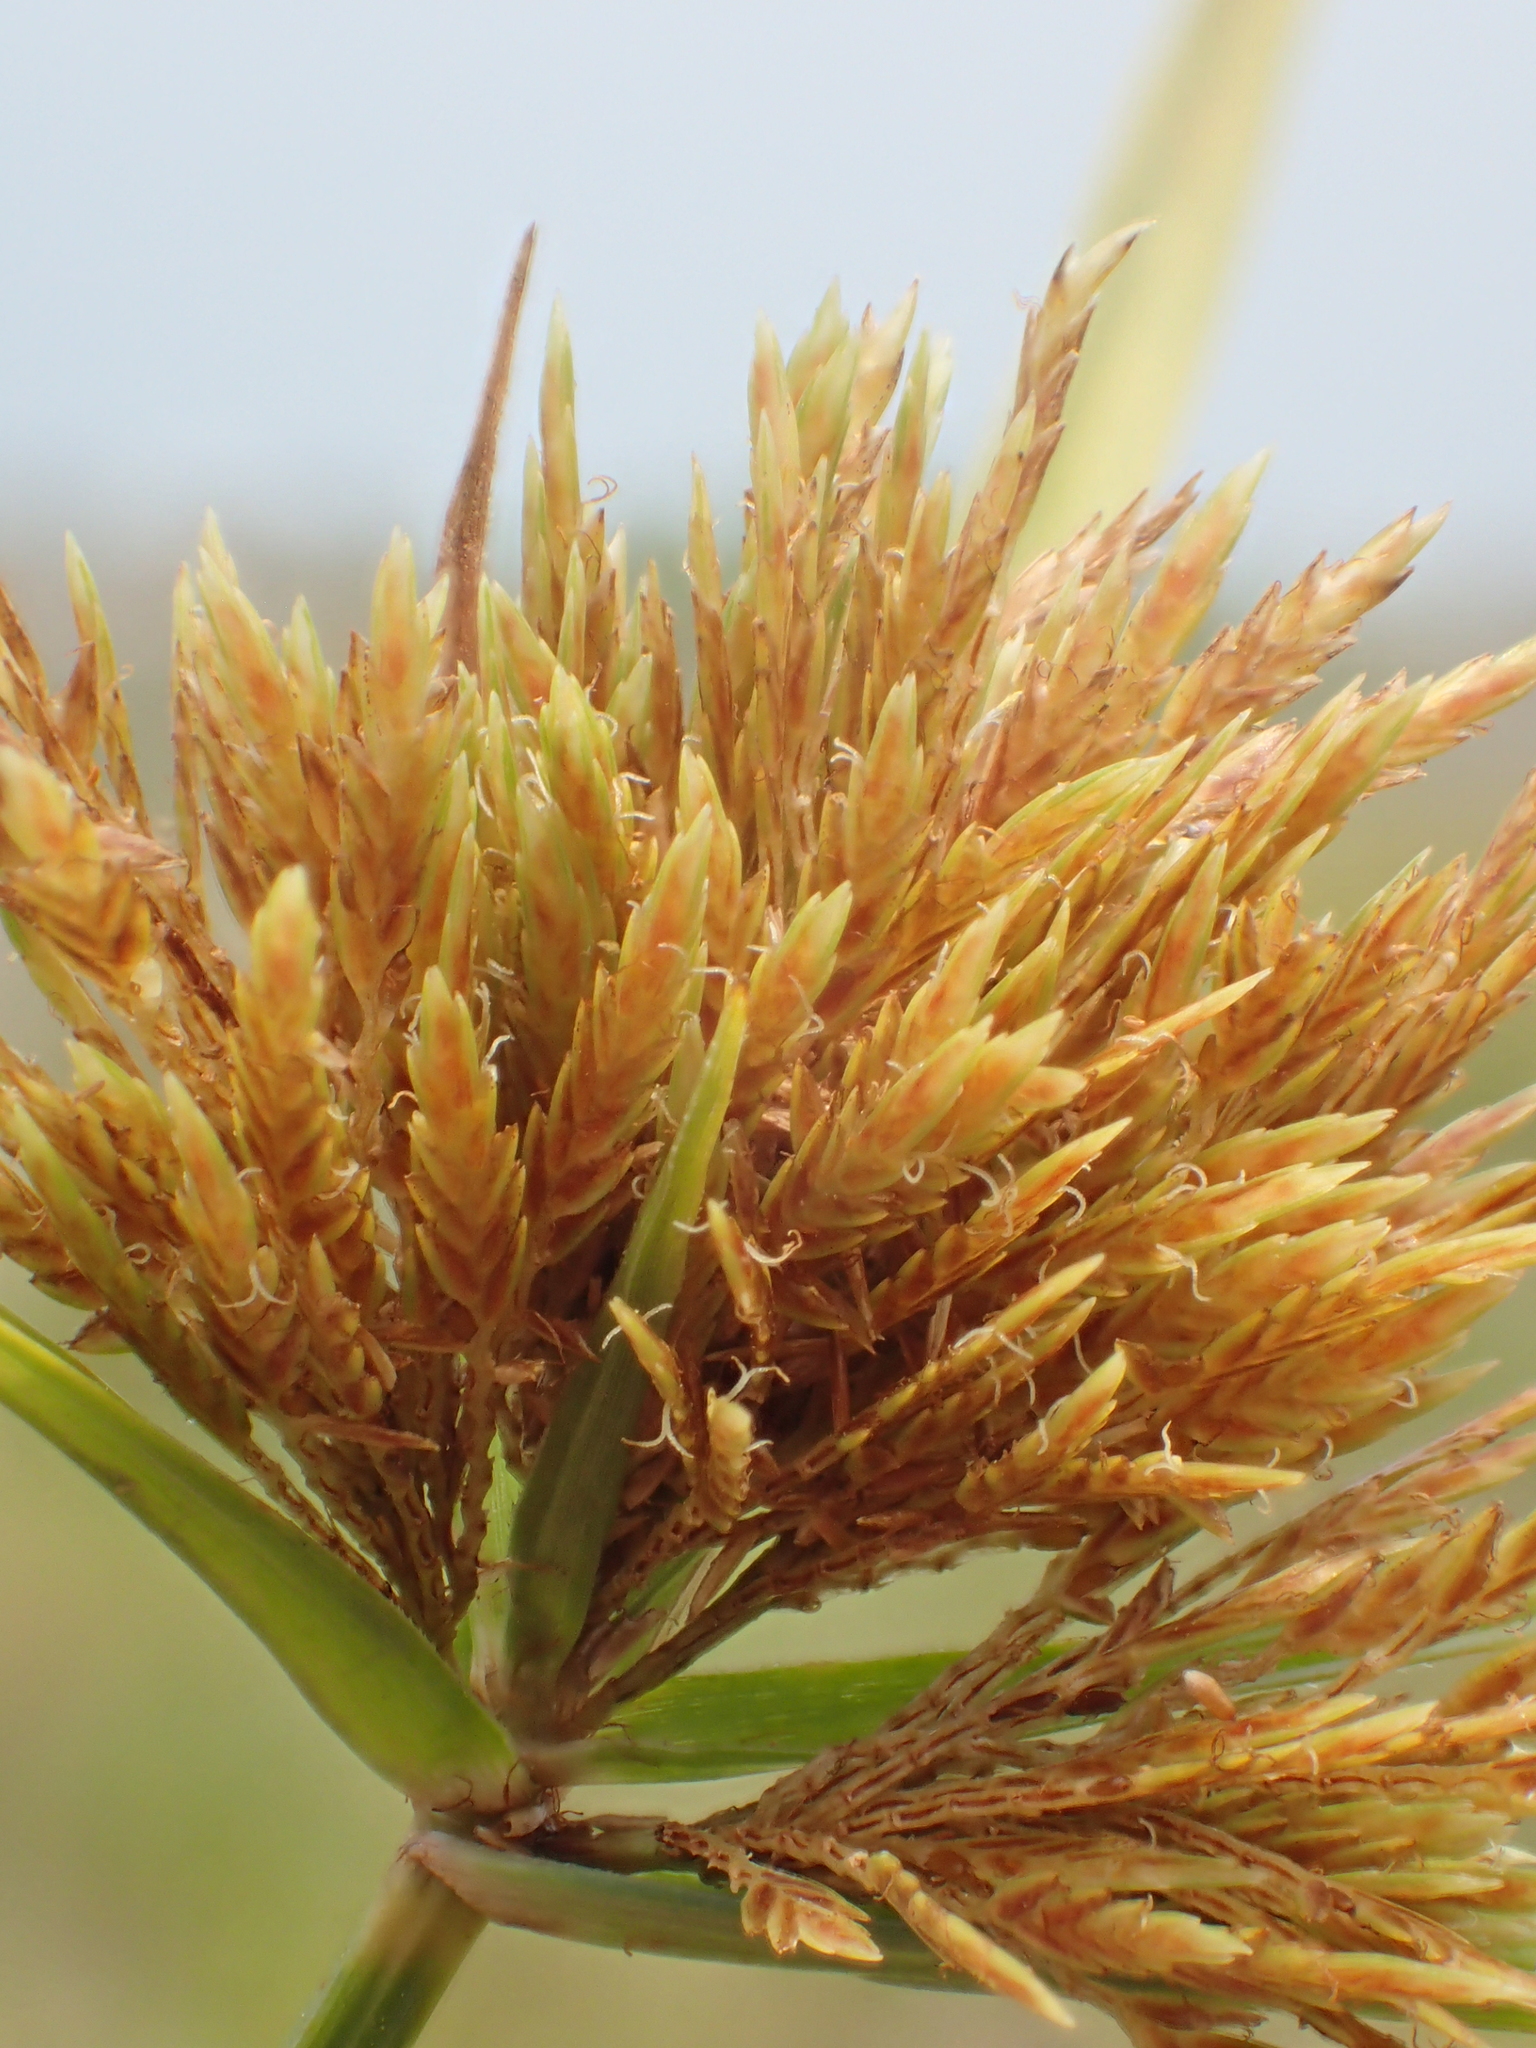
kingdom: Plantae
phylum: Tracheophyta
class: Liliopsida
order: Poales
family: Cyperaceae
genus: Cyperus
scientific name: Cyperus polystachyos
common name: Bunchy flat sedge
